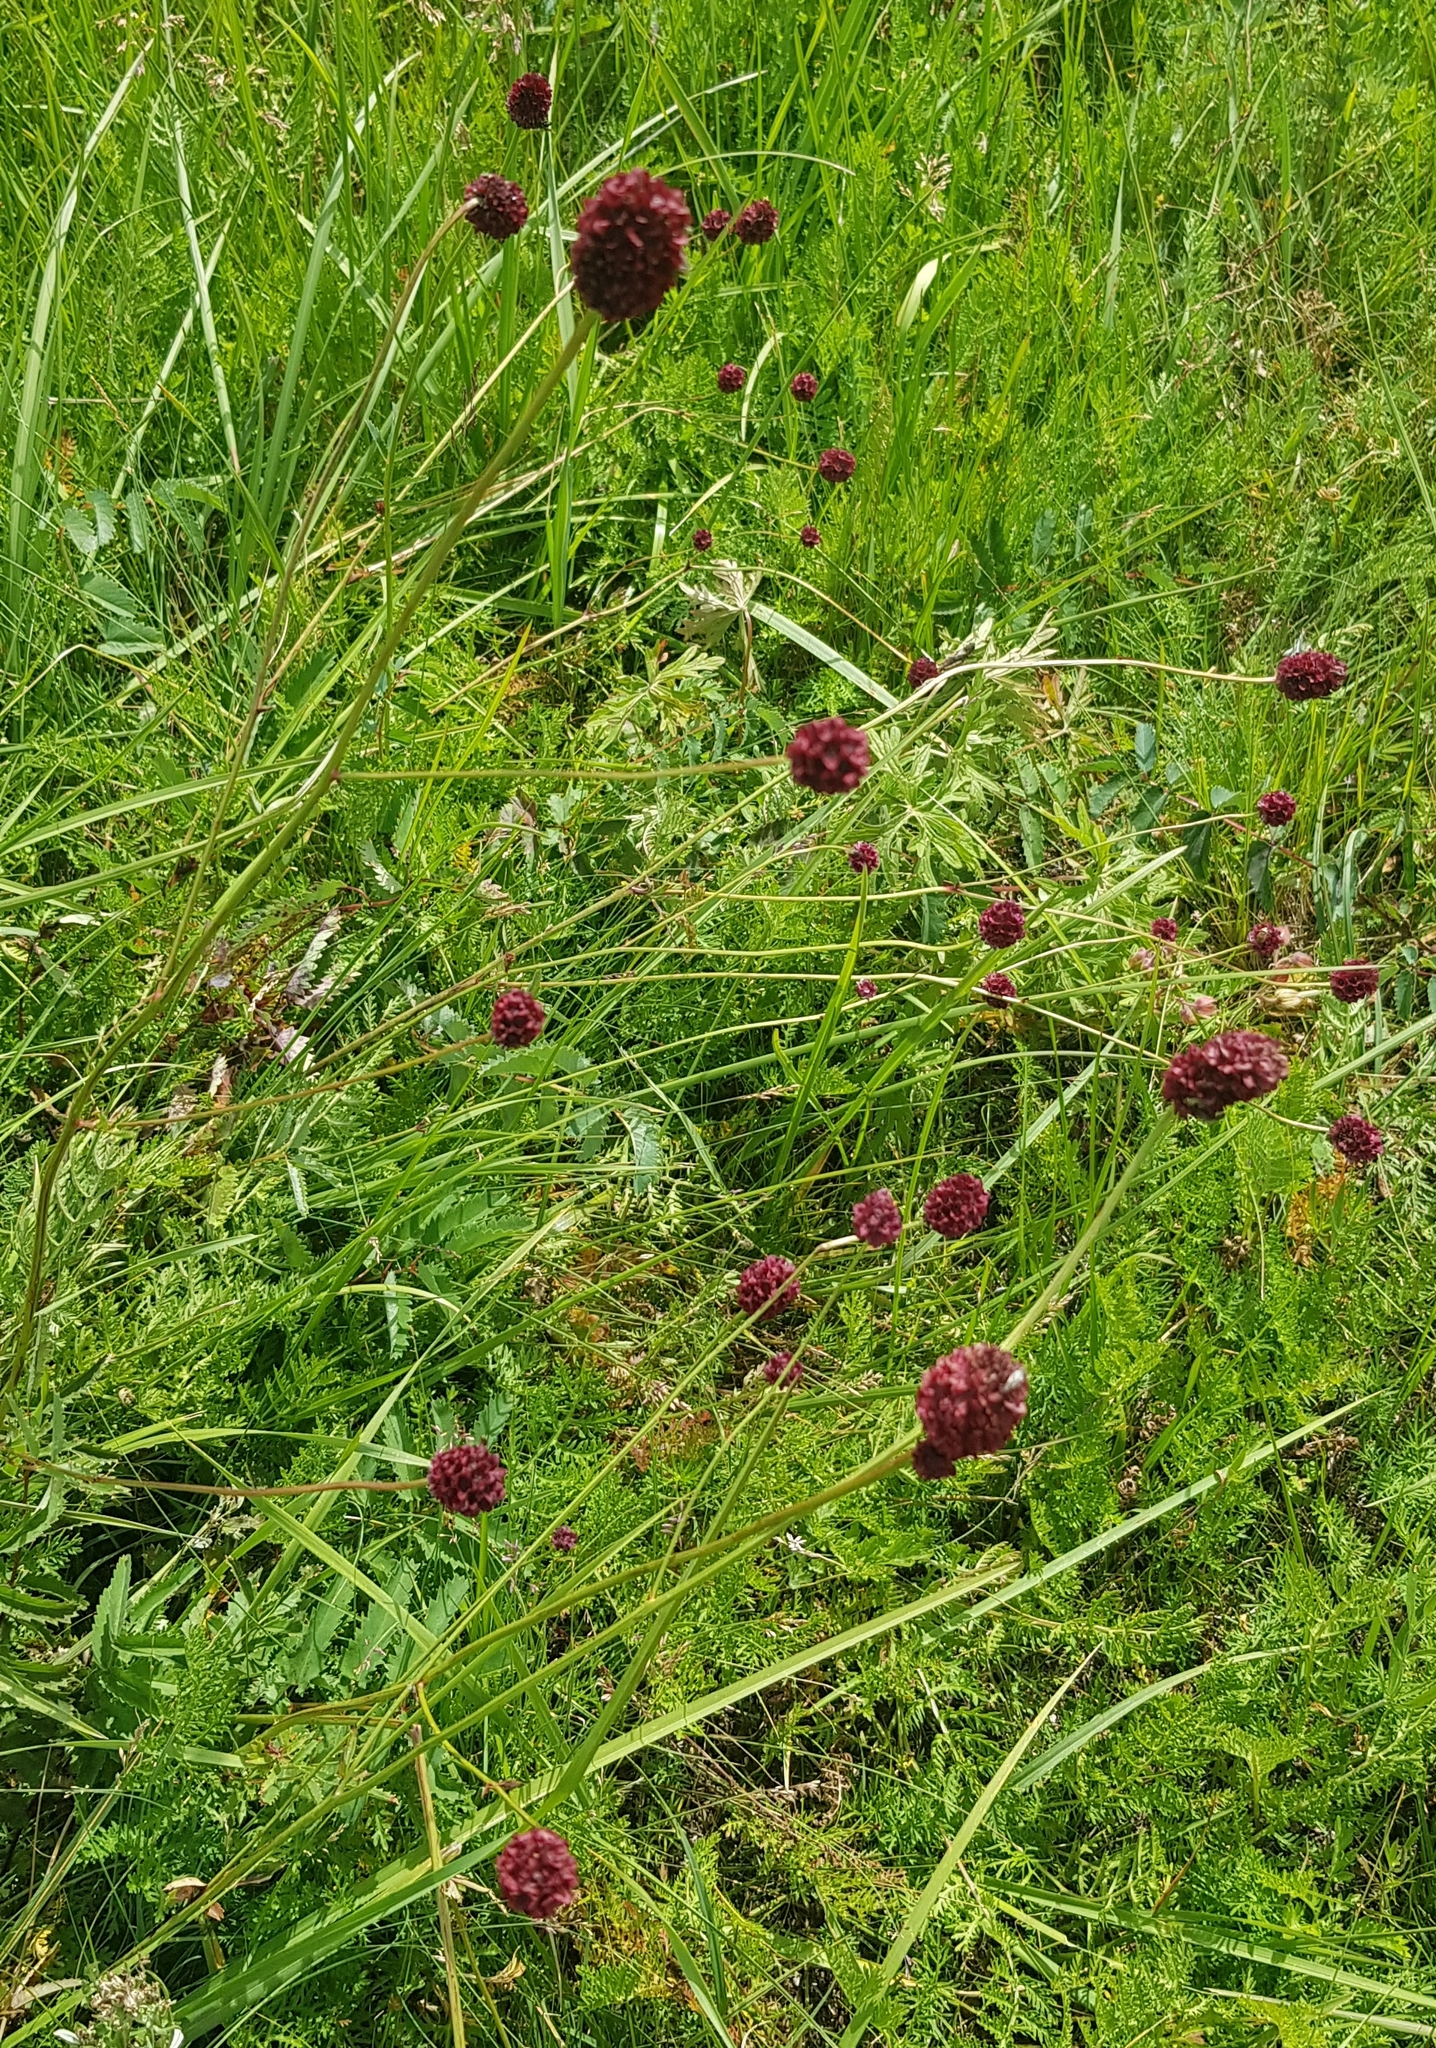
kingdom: Plantae
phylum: Tracheophyta
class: Magnoliopsida
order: Rosales
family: Rosaceae
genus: Sanguisorba
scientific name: Sanguisorba officinalis
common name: Great burnet
